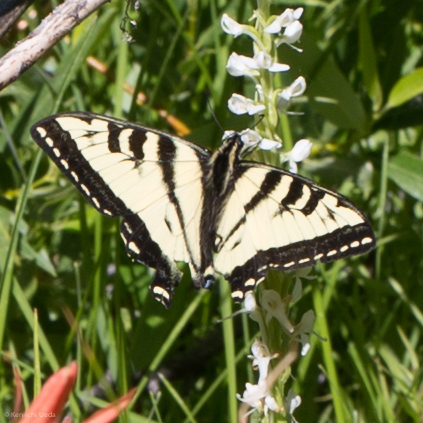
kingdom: Animalia
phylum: Arthropoda
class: Insecta
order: Lepidoptera
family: Papilionidae
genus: Papilio
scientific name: Papilio rutulus
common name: Western tiger swallowtail
